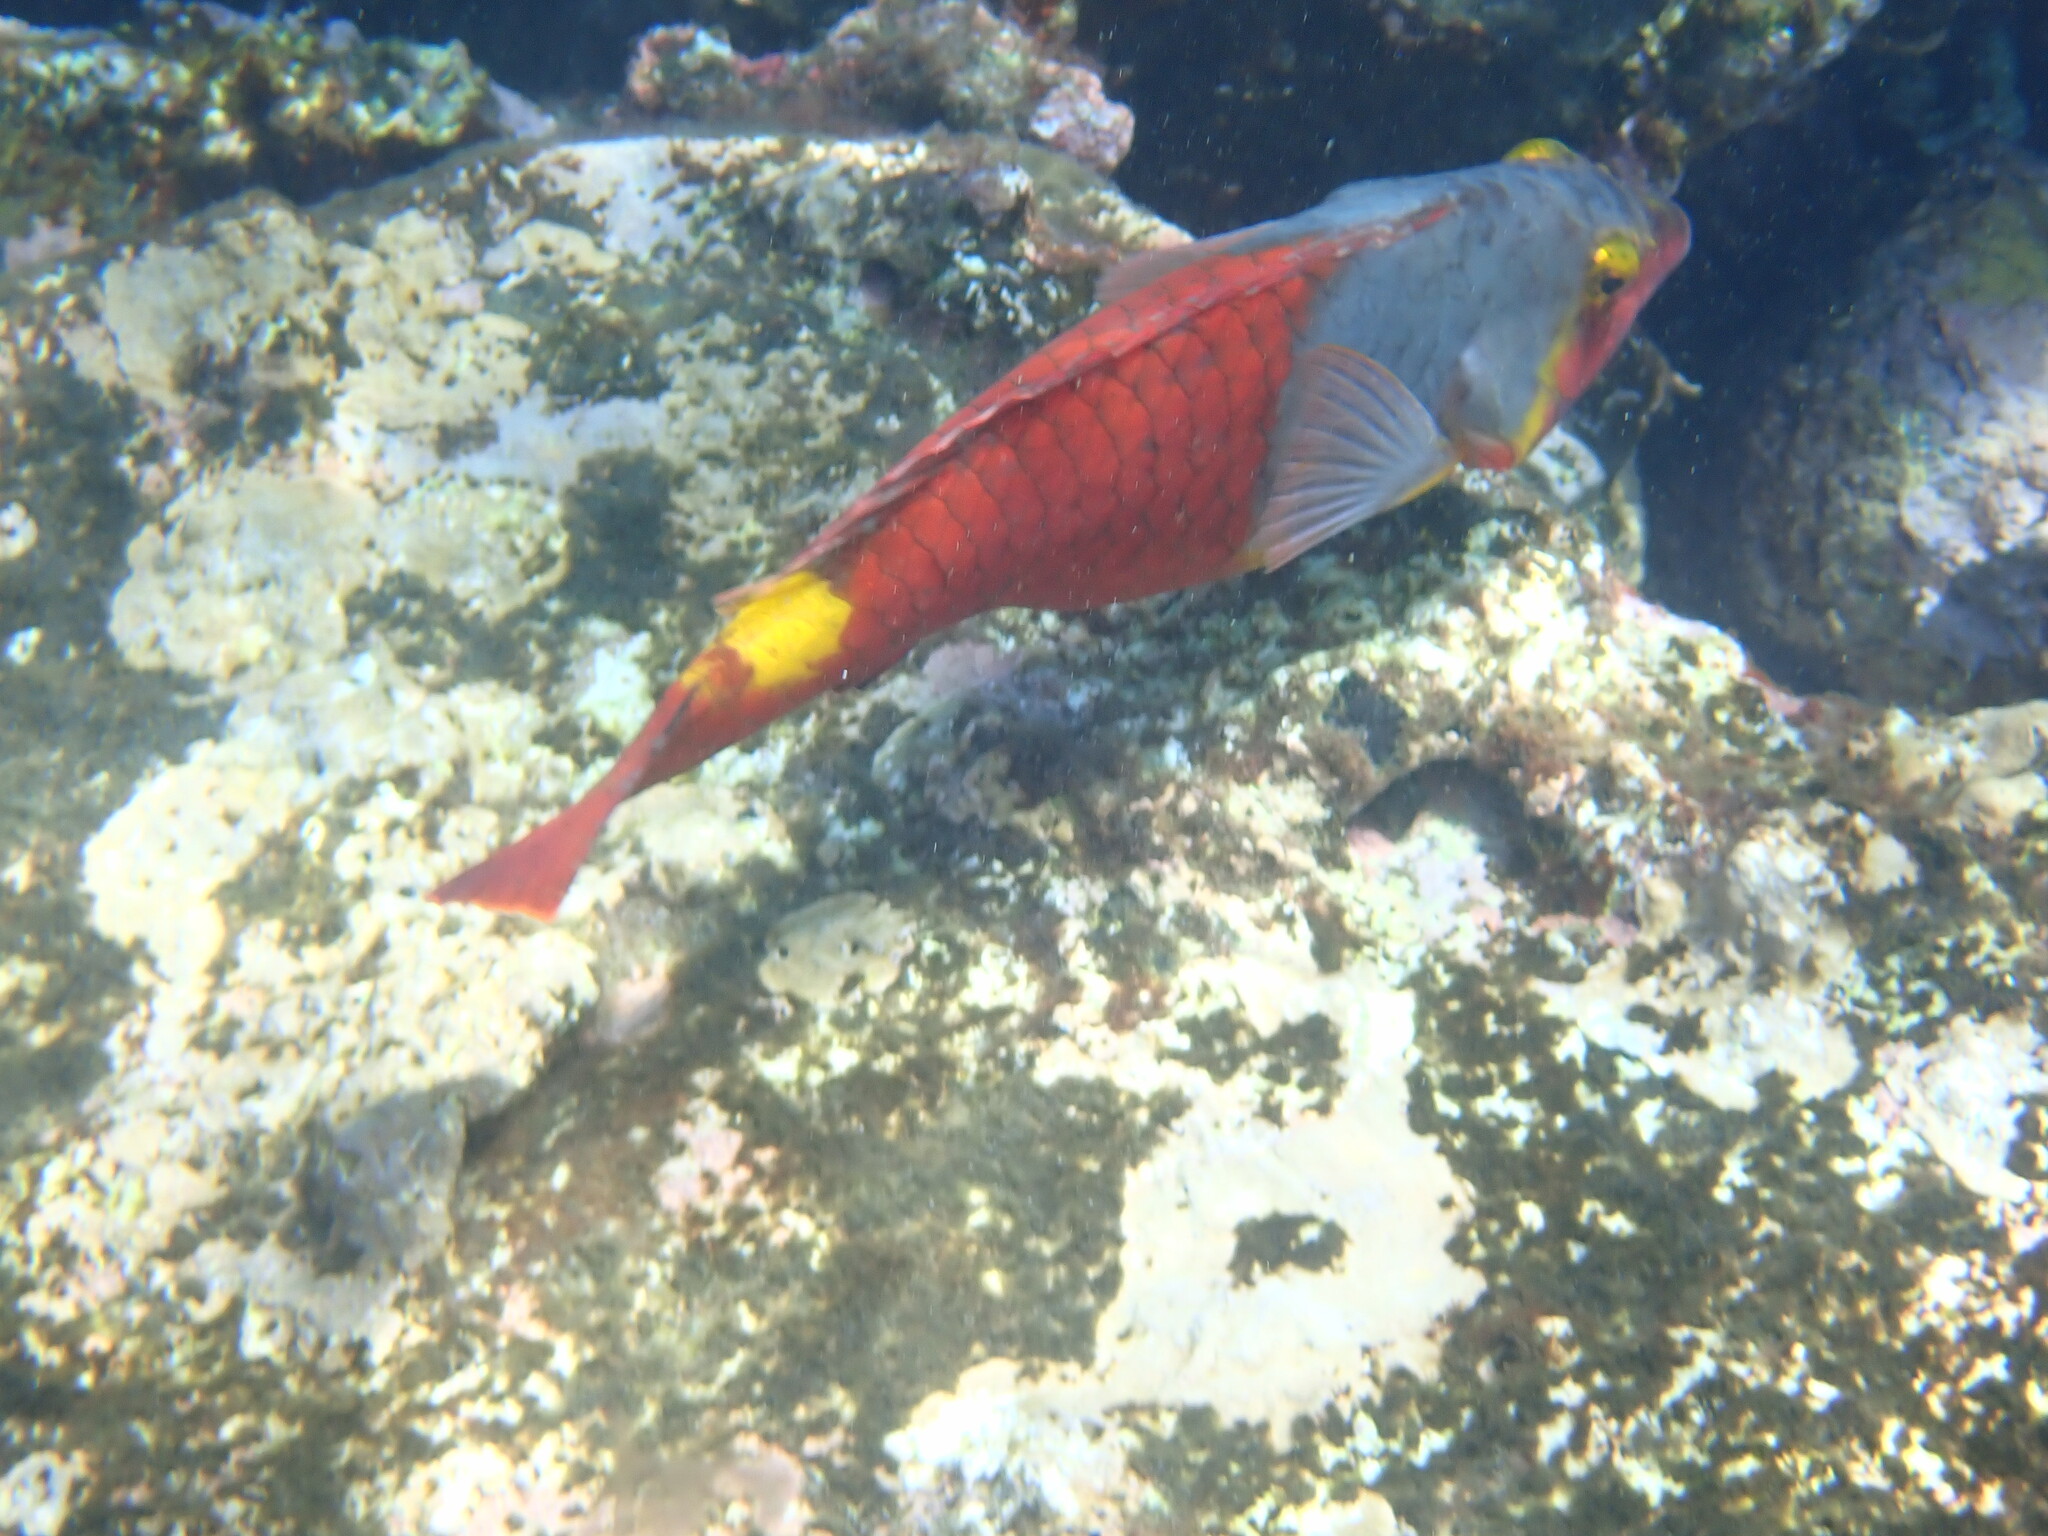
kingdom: Animalia
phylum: Chordata
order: Perciformes
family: Scaridae
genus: Sparisoma
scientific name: Sparisoma cretense
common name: Parrotfish
